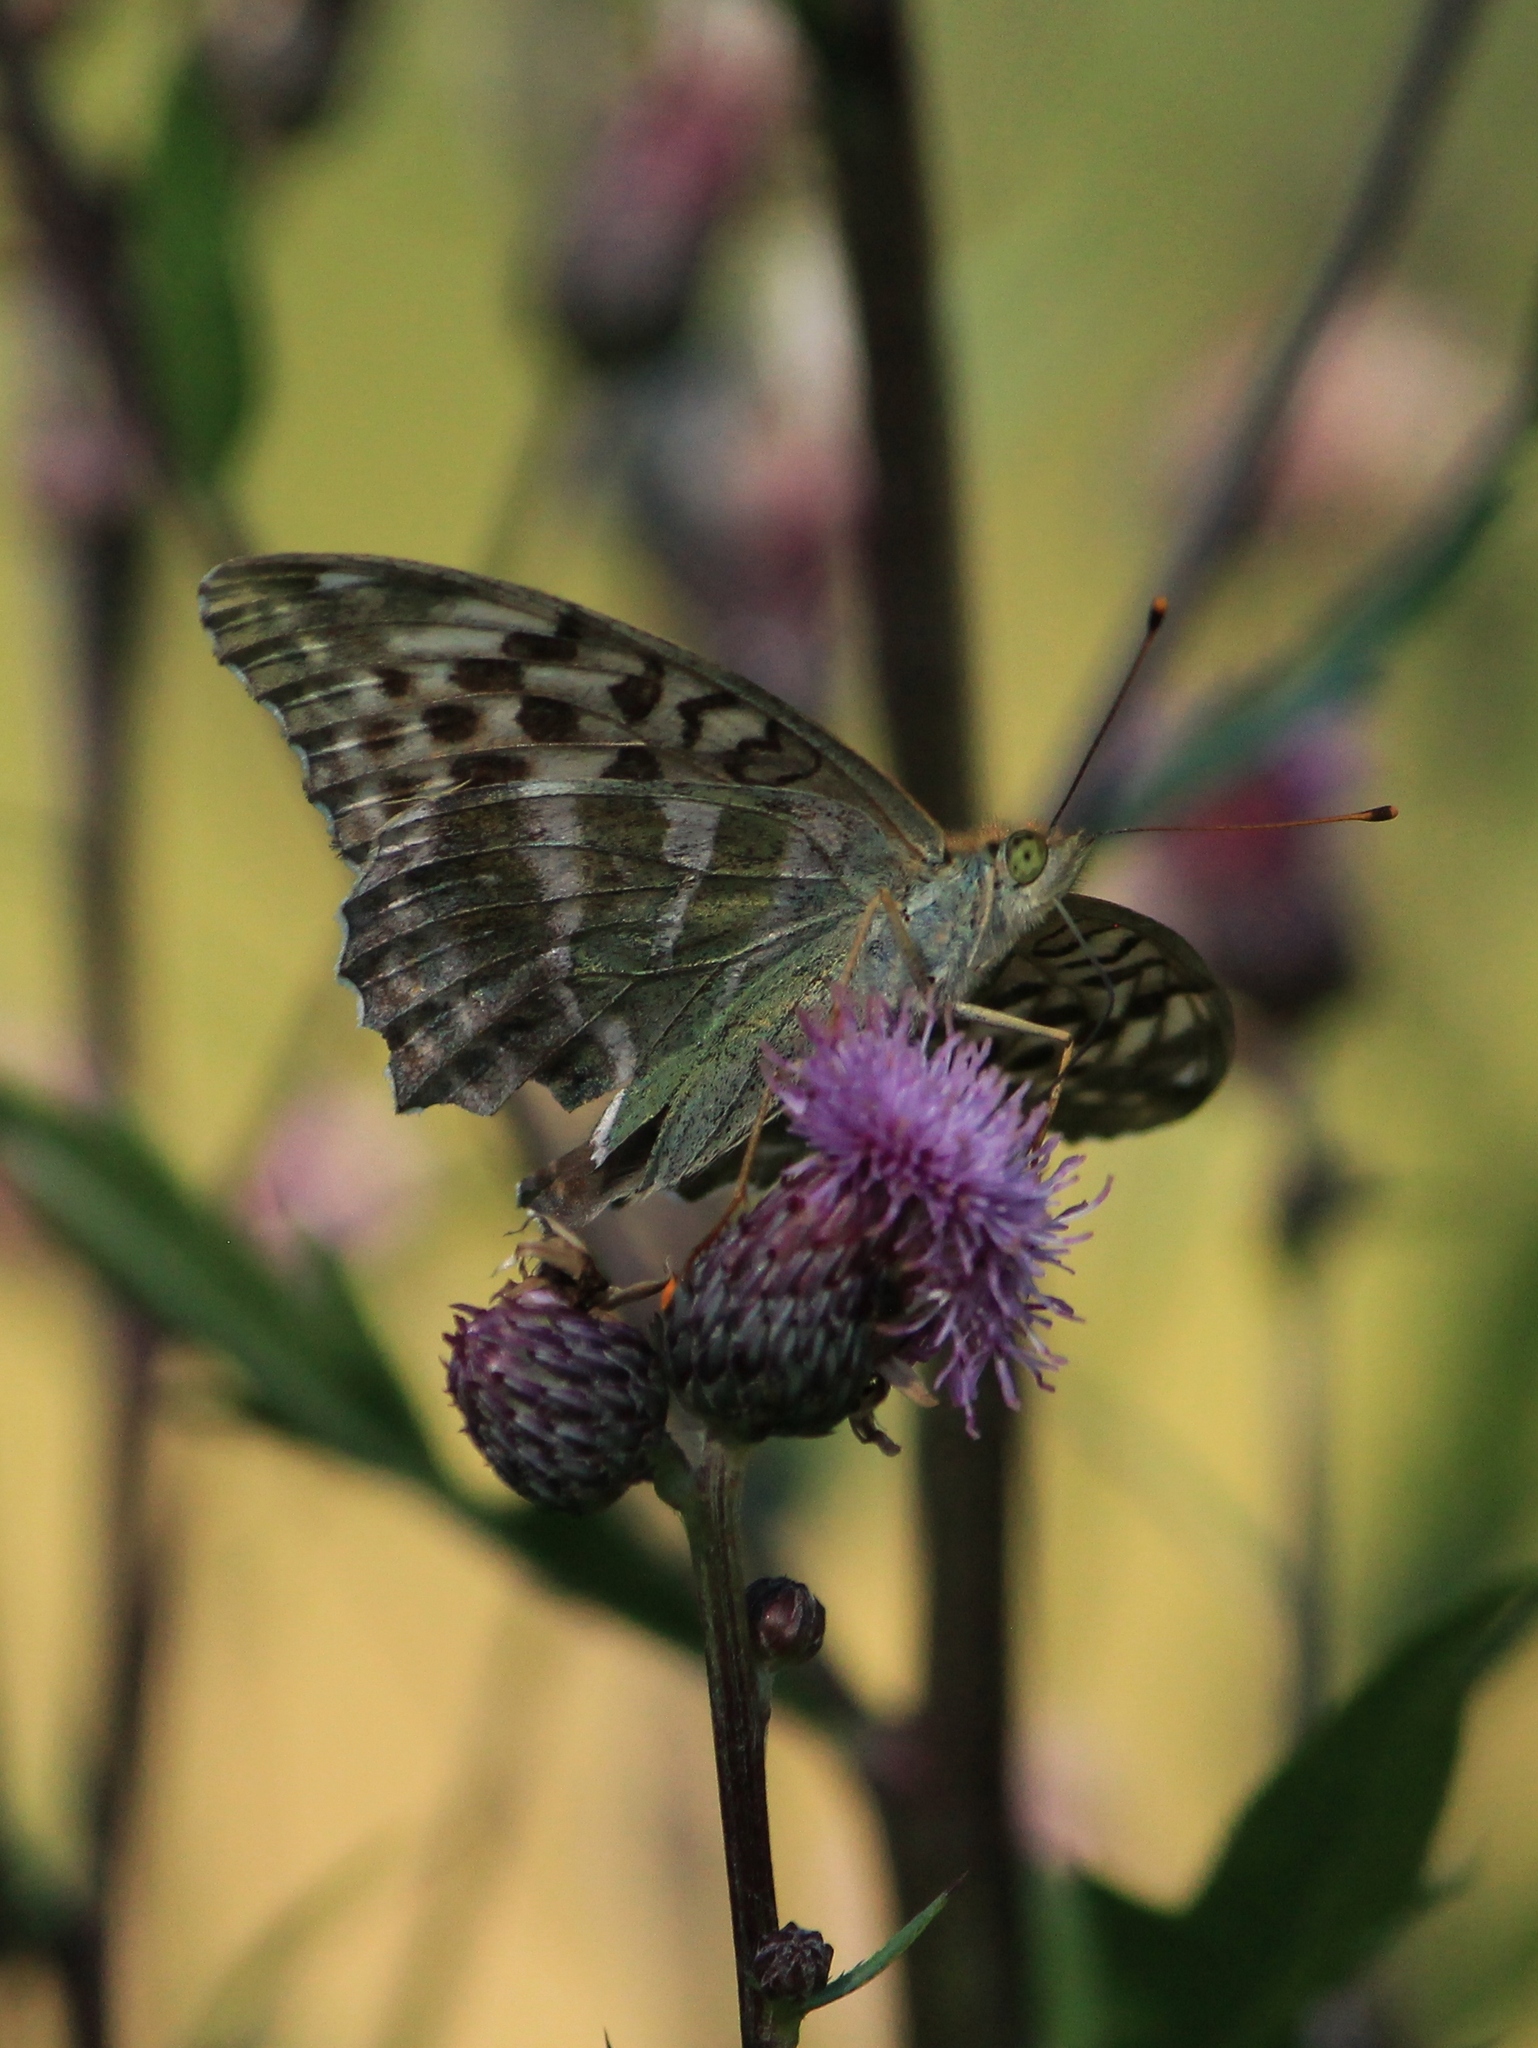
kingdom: Animalia
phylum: Arthropoda
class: Insecta
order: Lepidoptera
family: Nymphalidae
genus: Argynnis
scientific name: Argynnis paphia
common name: Silver-washed fritillary
